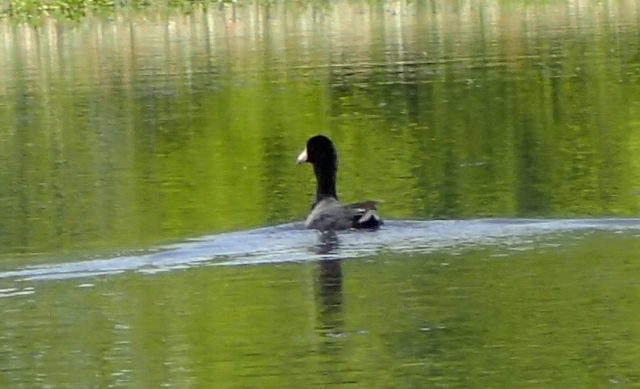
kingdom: Animalia
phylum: Chordata
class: Aves
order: Gruiformes
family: Rallidae
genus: Fulica
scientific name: Fulica americana
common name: American coot
